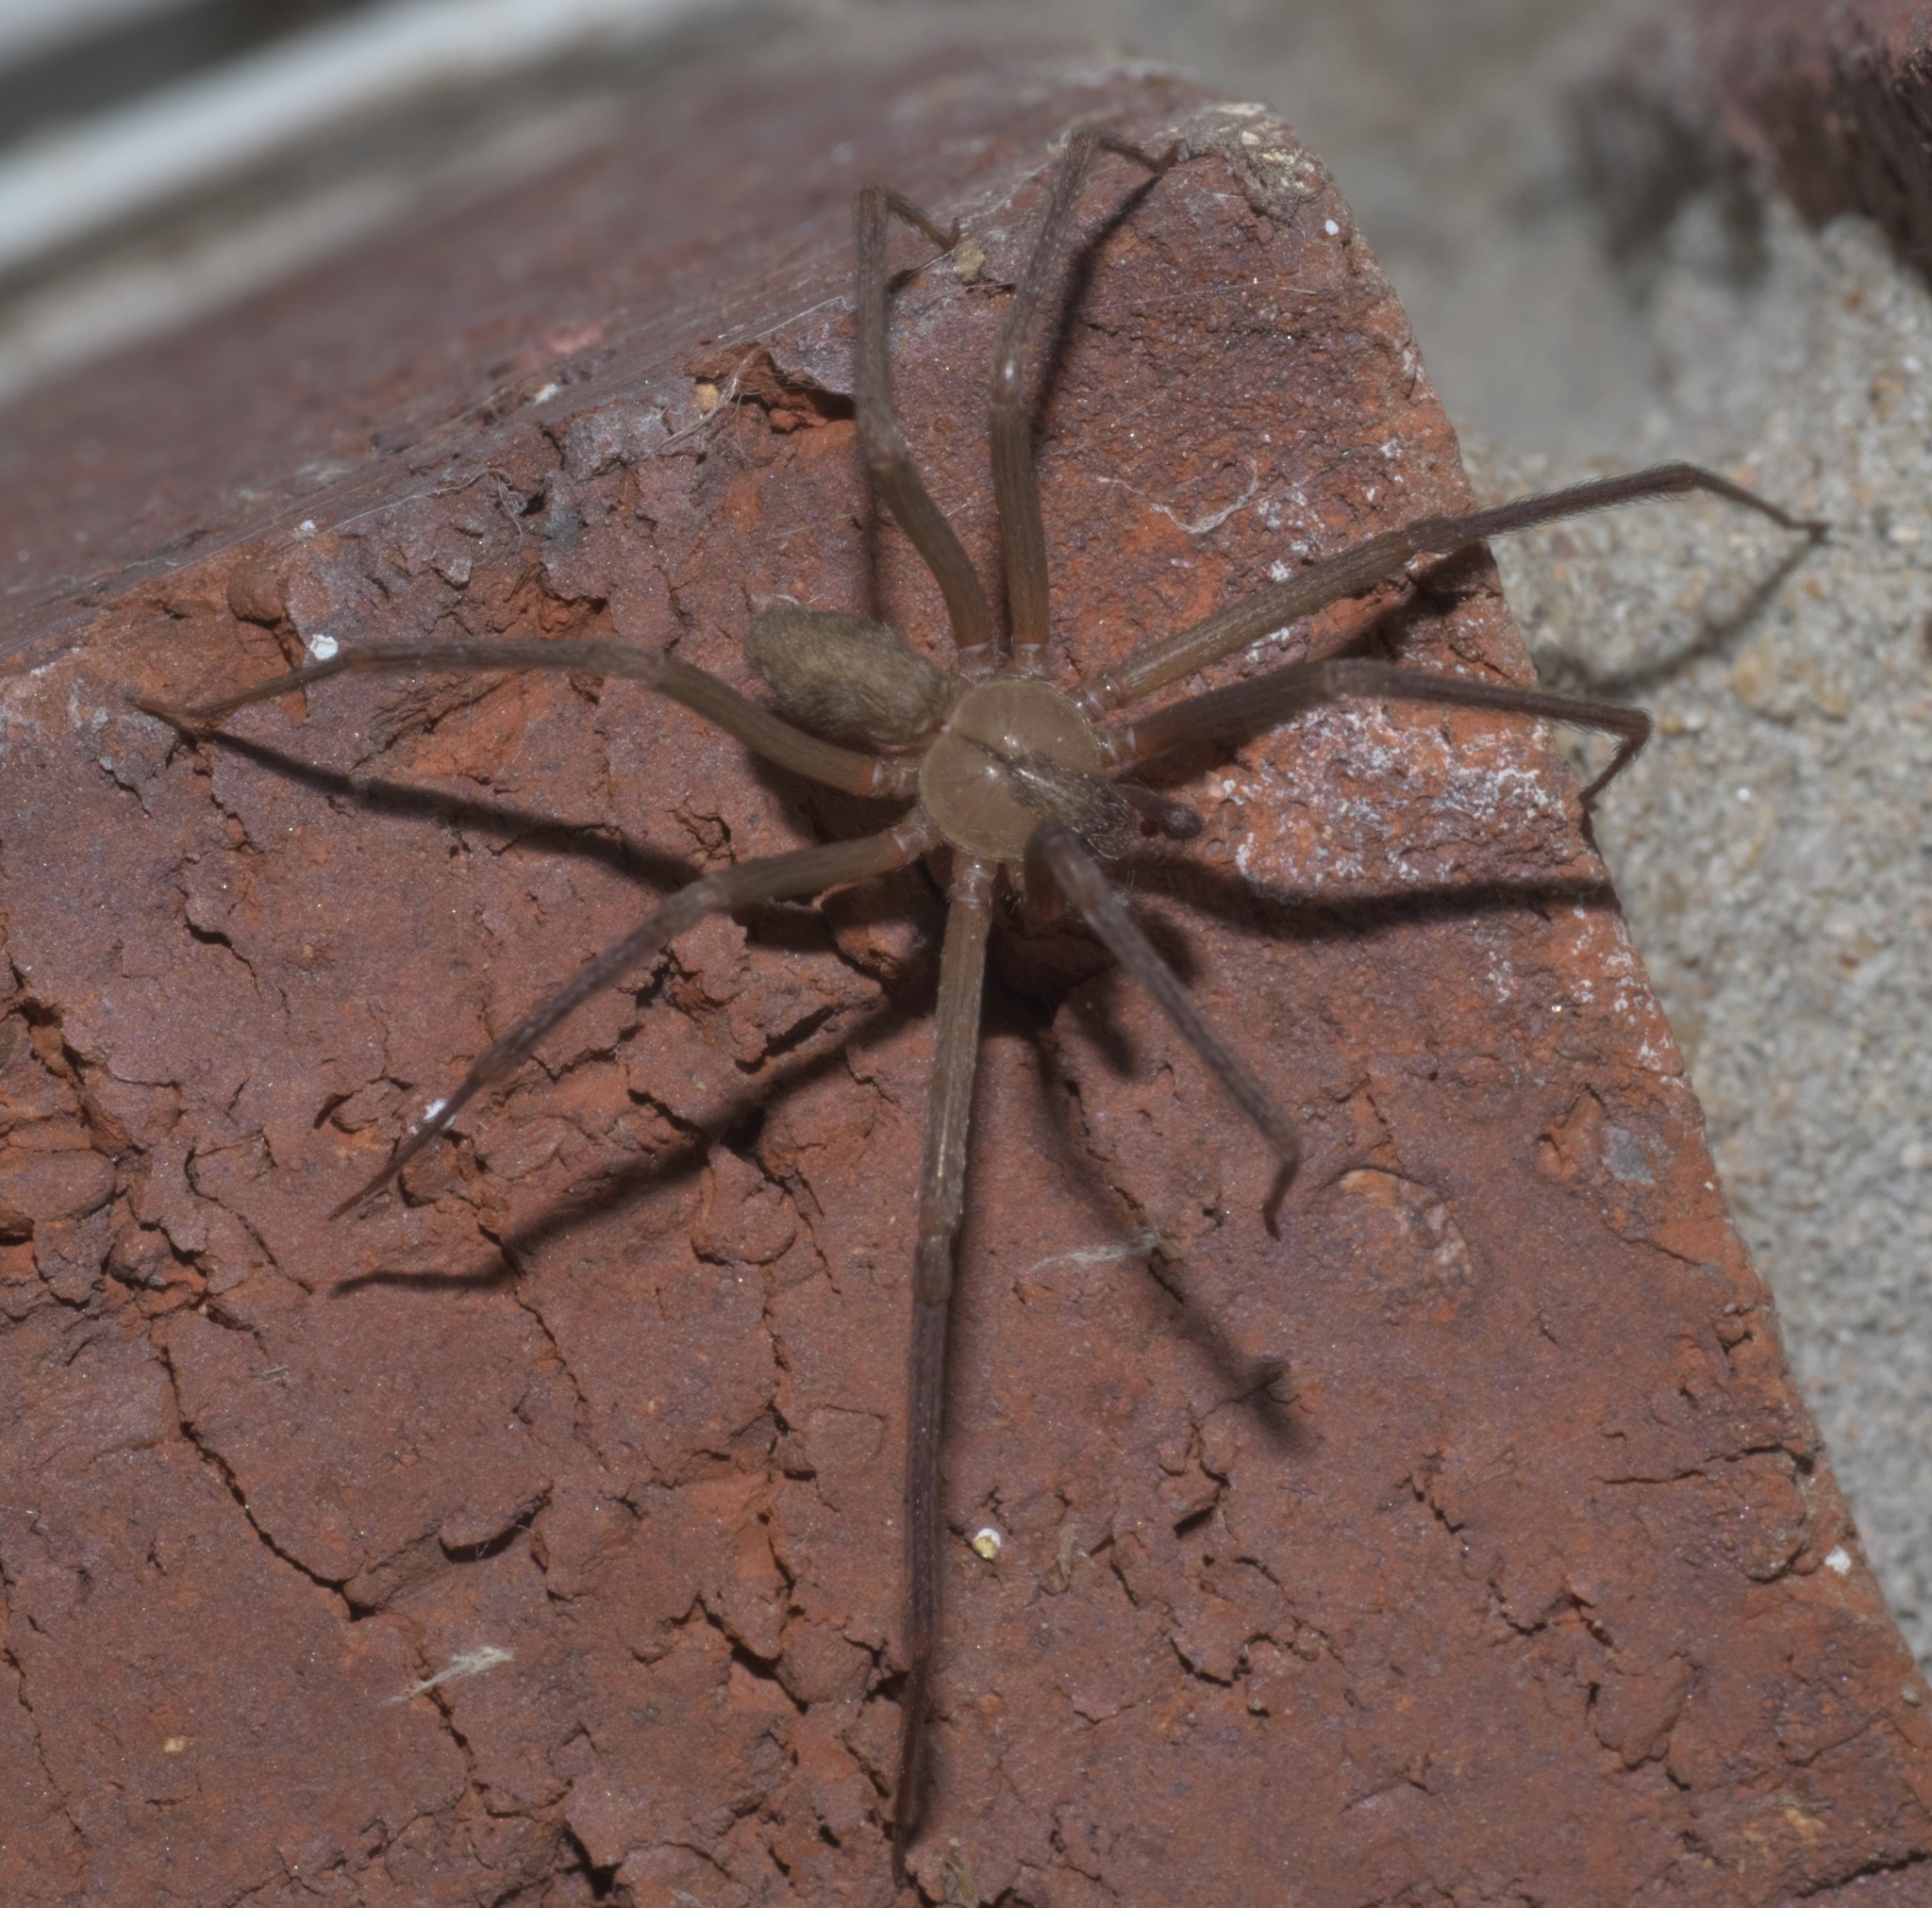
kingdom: Animalia
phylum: Arthropoda
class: Arachnida
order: Araneae
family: Sicariidae
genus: Loxosceles
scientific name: Loxosceles reclusa
